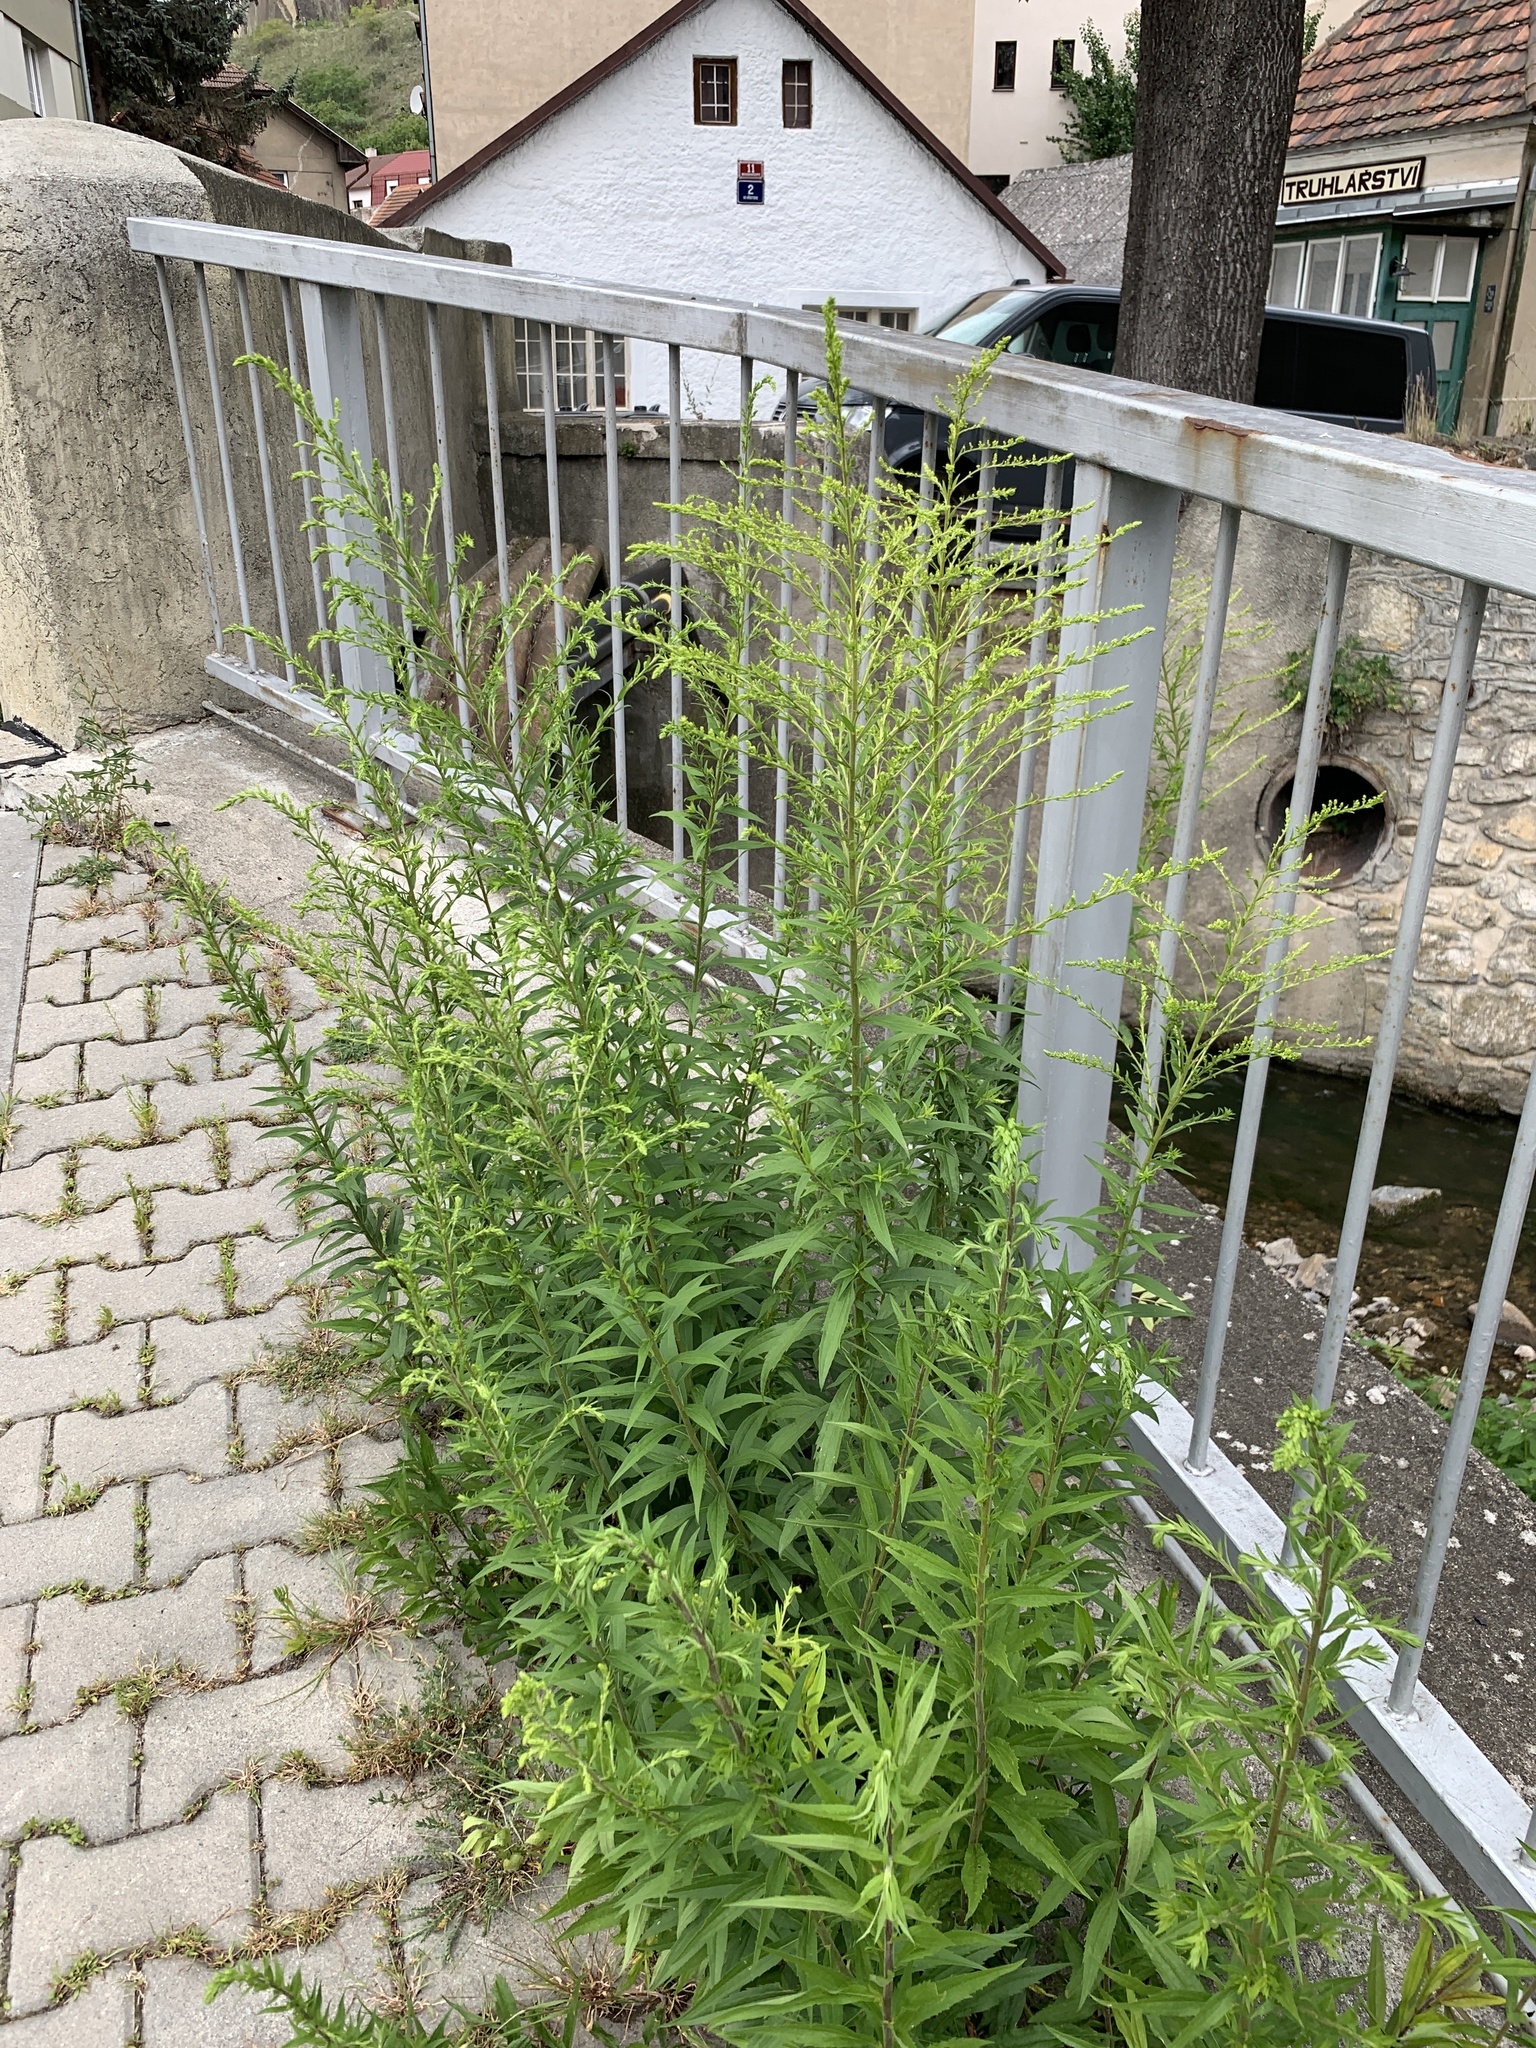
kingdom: Plantae
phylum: Tracheophyta
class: Magnoliopsida
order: Asterales
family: Asteraceae
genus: Solidago
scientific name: Solidago canadensis
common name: Canada goldenrod
